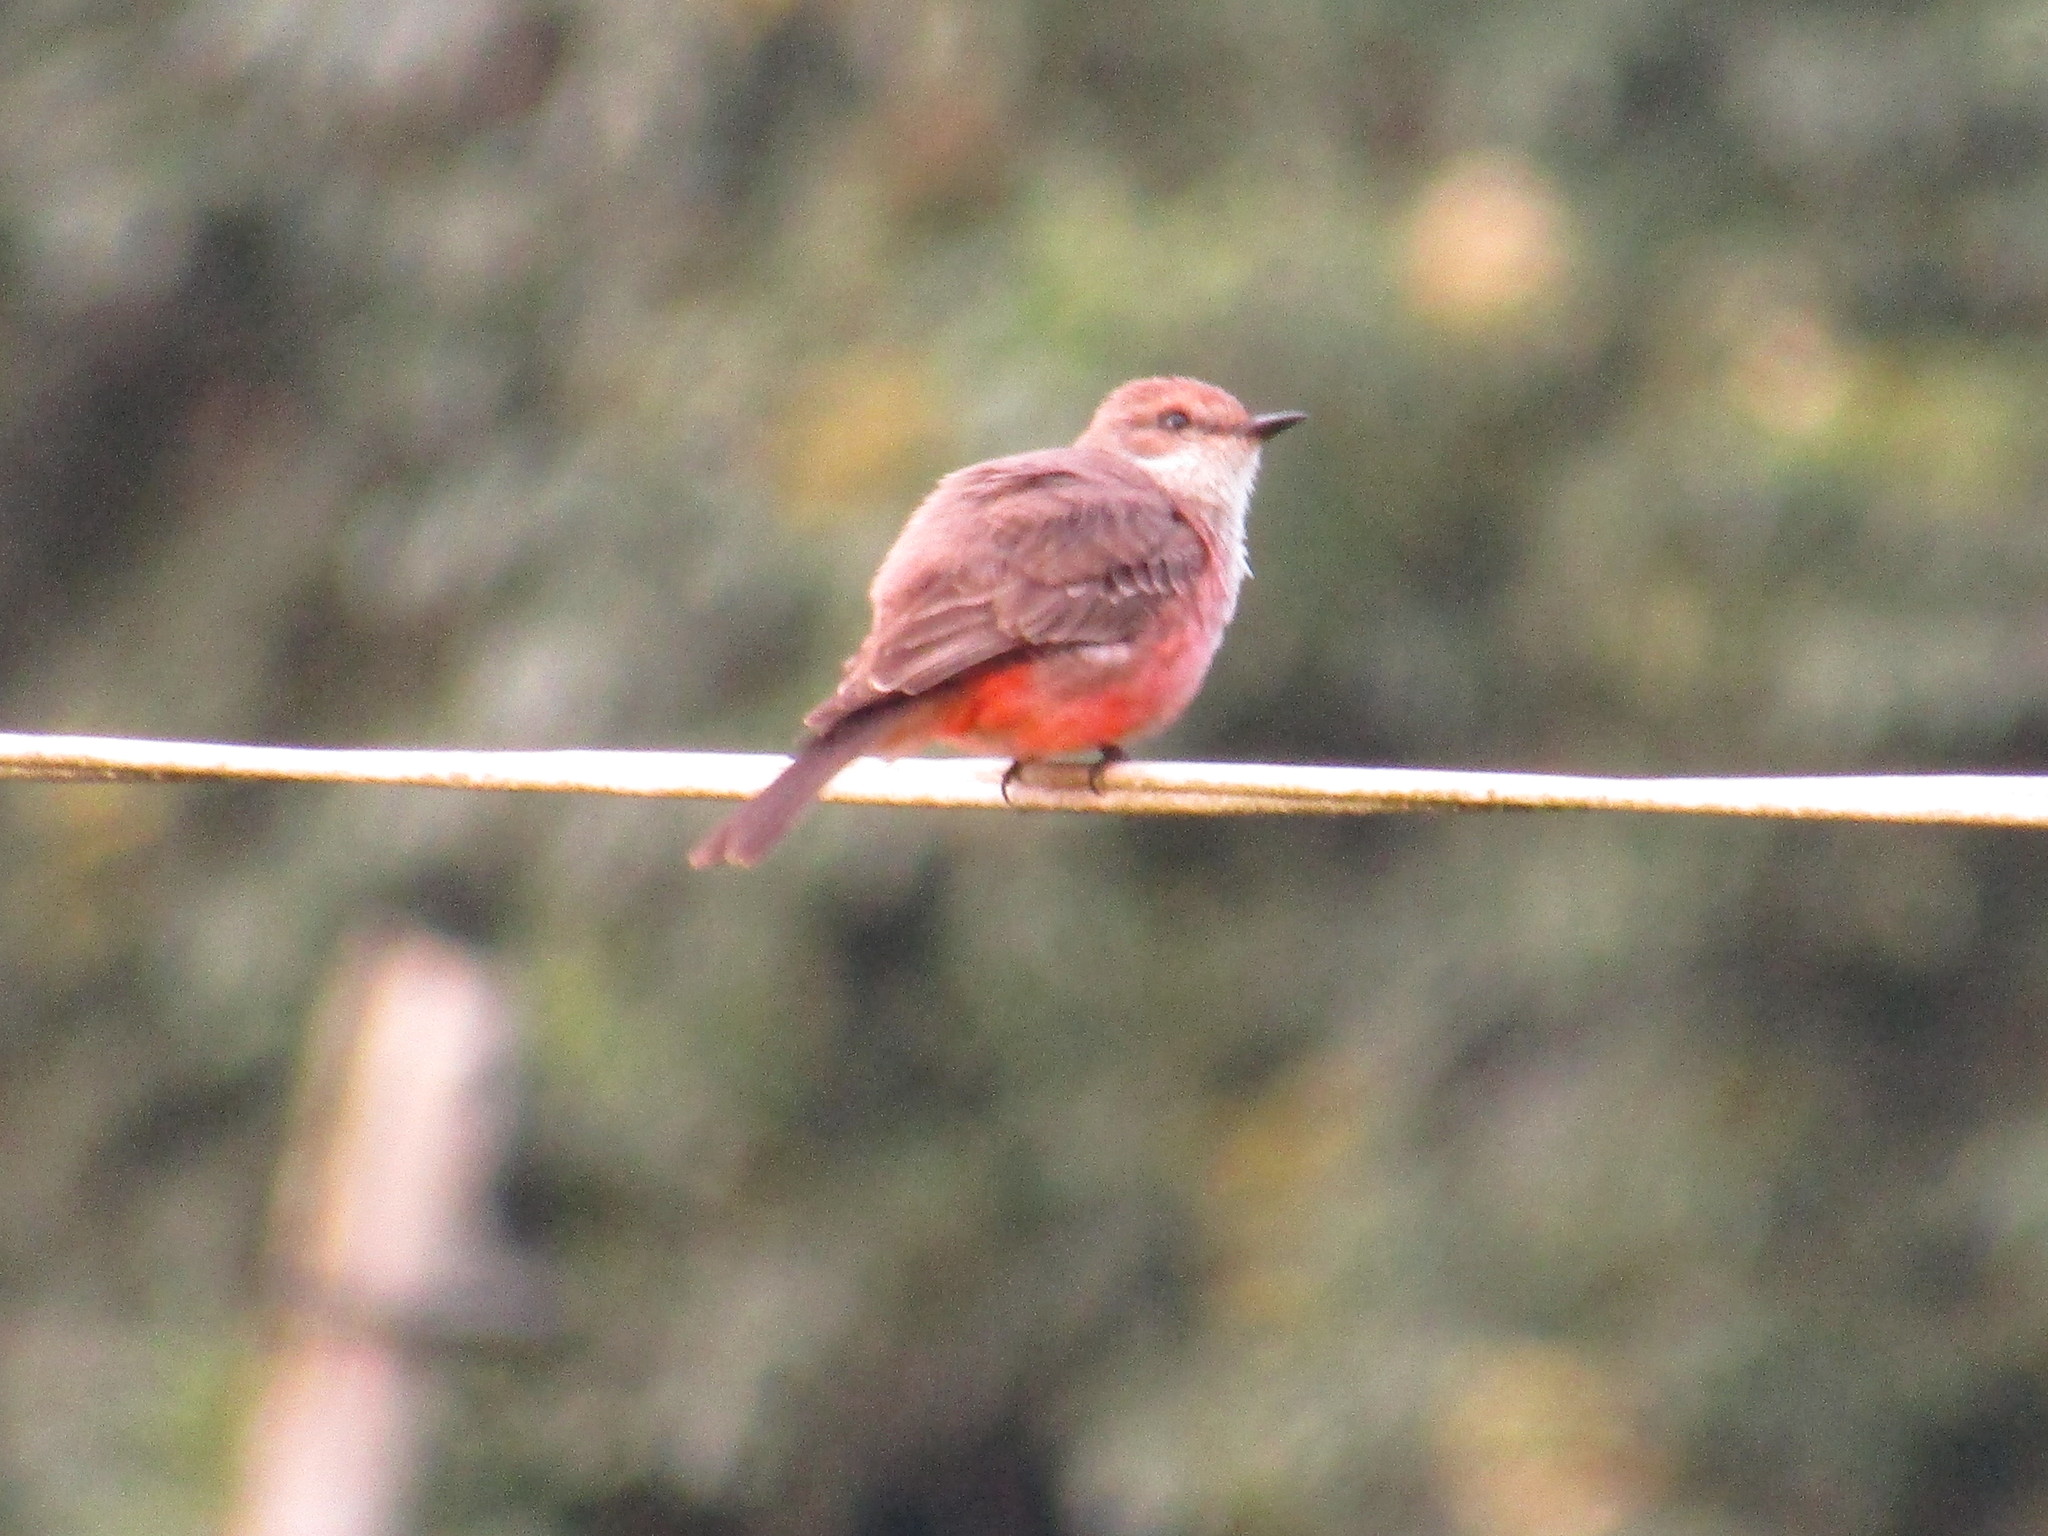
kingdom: Animalia
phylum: Chordata
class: Aves
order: Passeriformes
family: Tyrannidae
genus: Pyrocephalus
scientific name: Pyrocephalus rubinus
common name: Vermilion flycatcher
